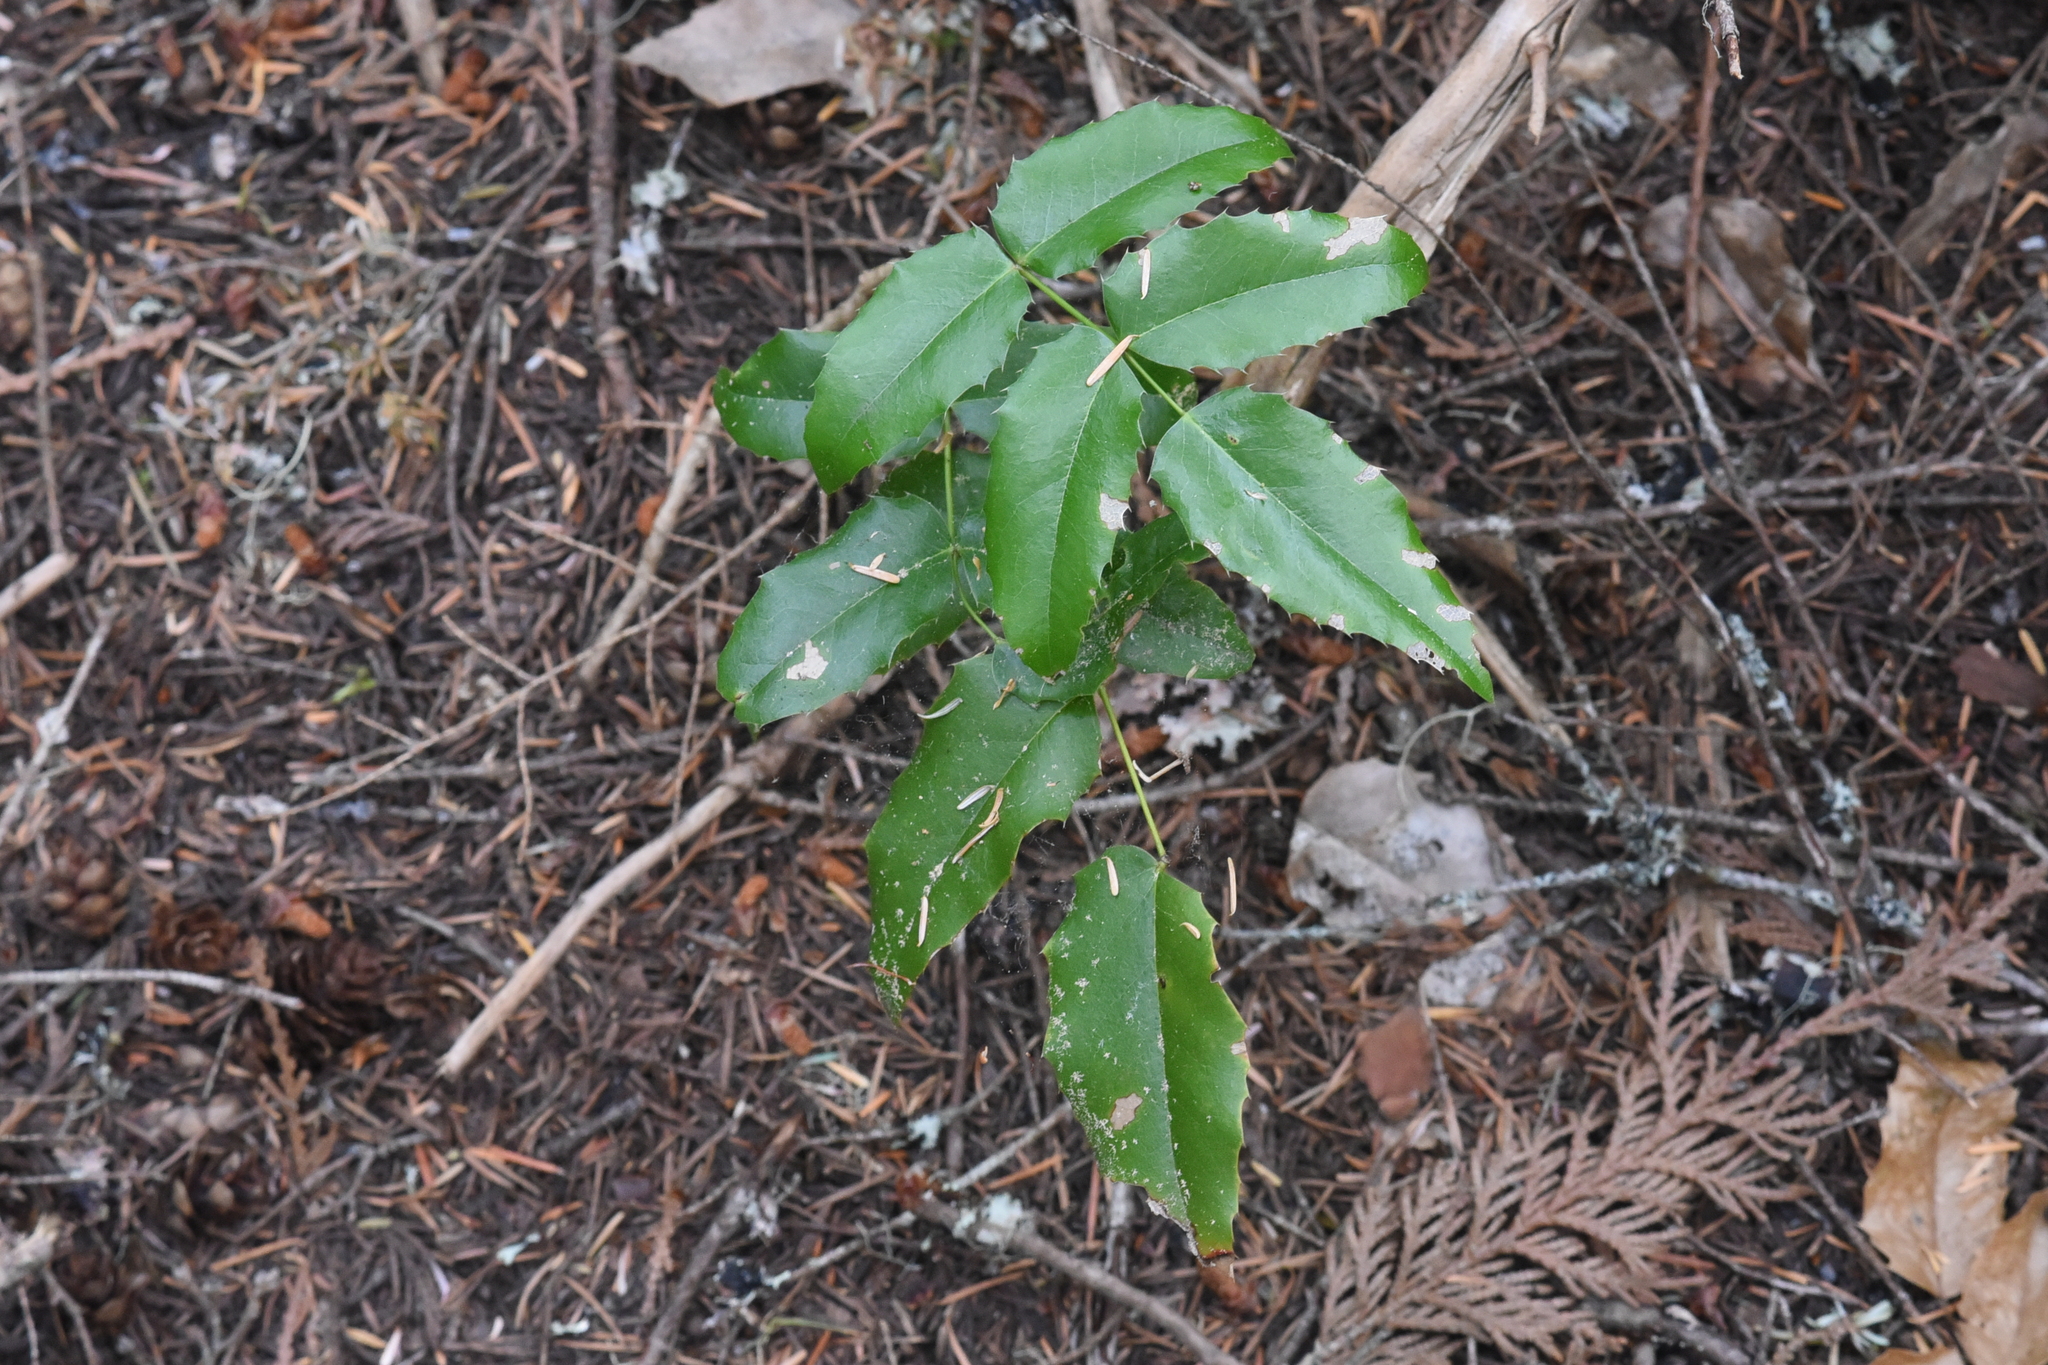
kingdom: Plantae
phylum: Tracheophyta
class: Magnoliopsida
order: Ranunculales
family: Berberidaceae
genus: Mahonia
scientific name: Mahonia aquifolium
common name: Oregon-grape
